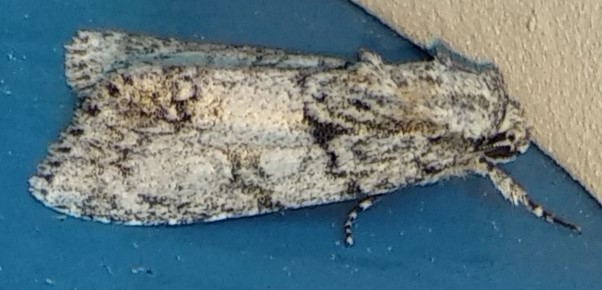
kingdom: Animalia
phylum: Arthropoda
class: Insecta
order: Lepidoptera
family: Noctuidae
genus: Acronicta
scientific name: Acronicta retardata
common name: Maple dagger
